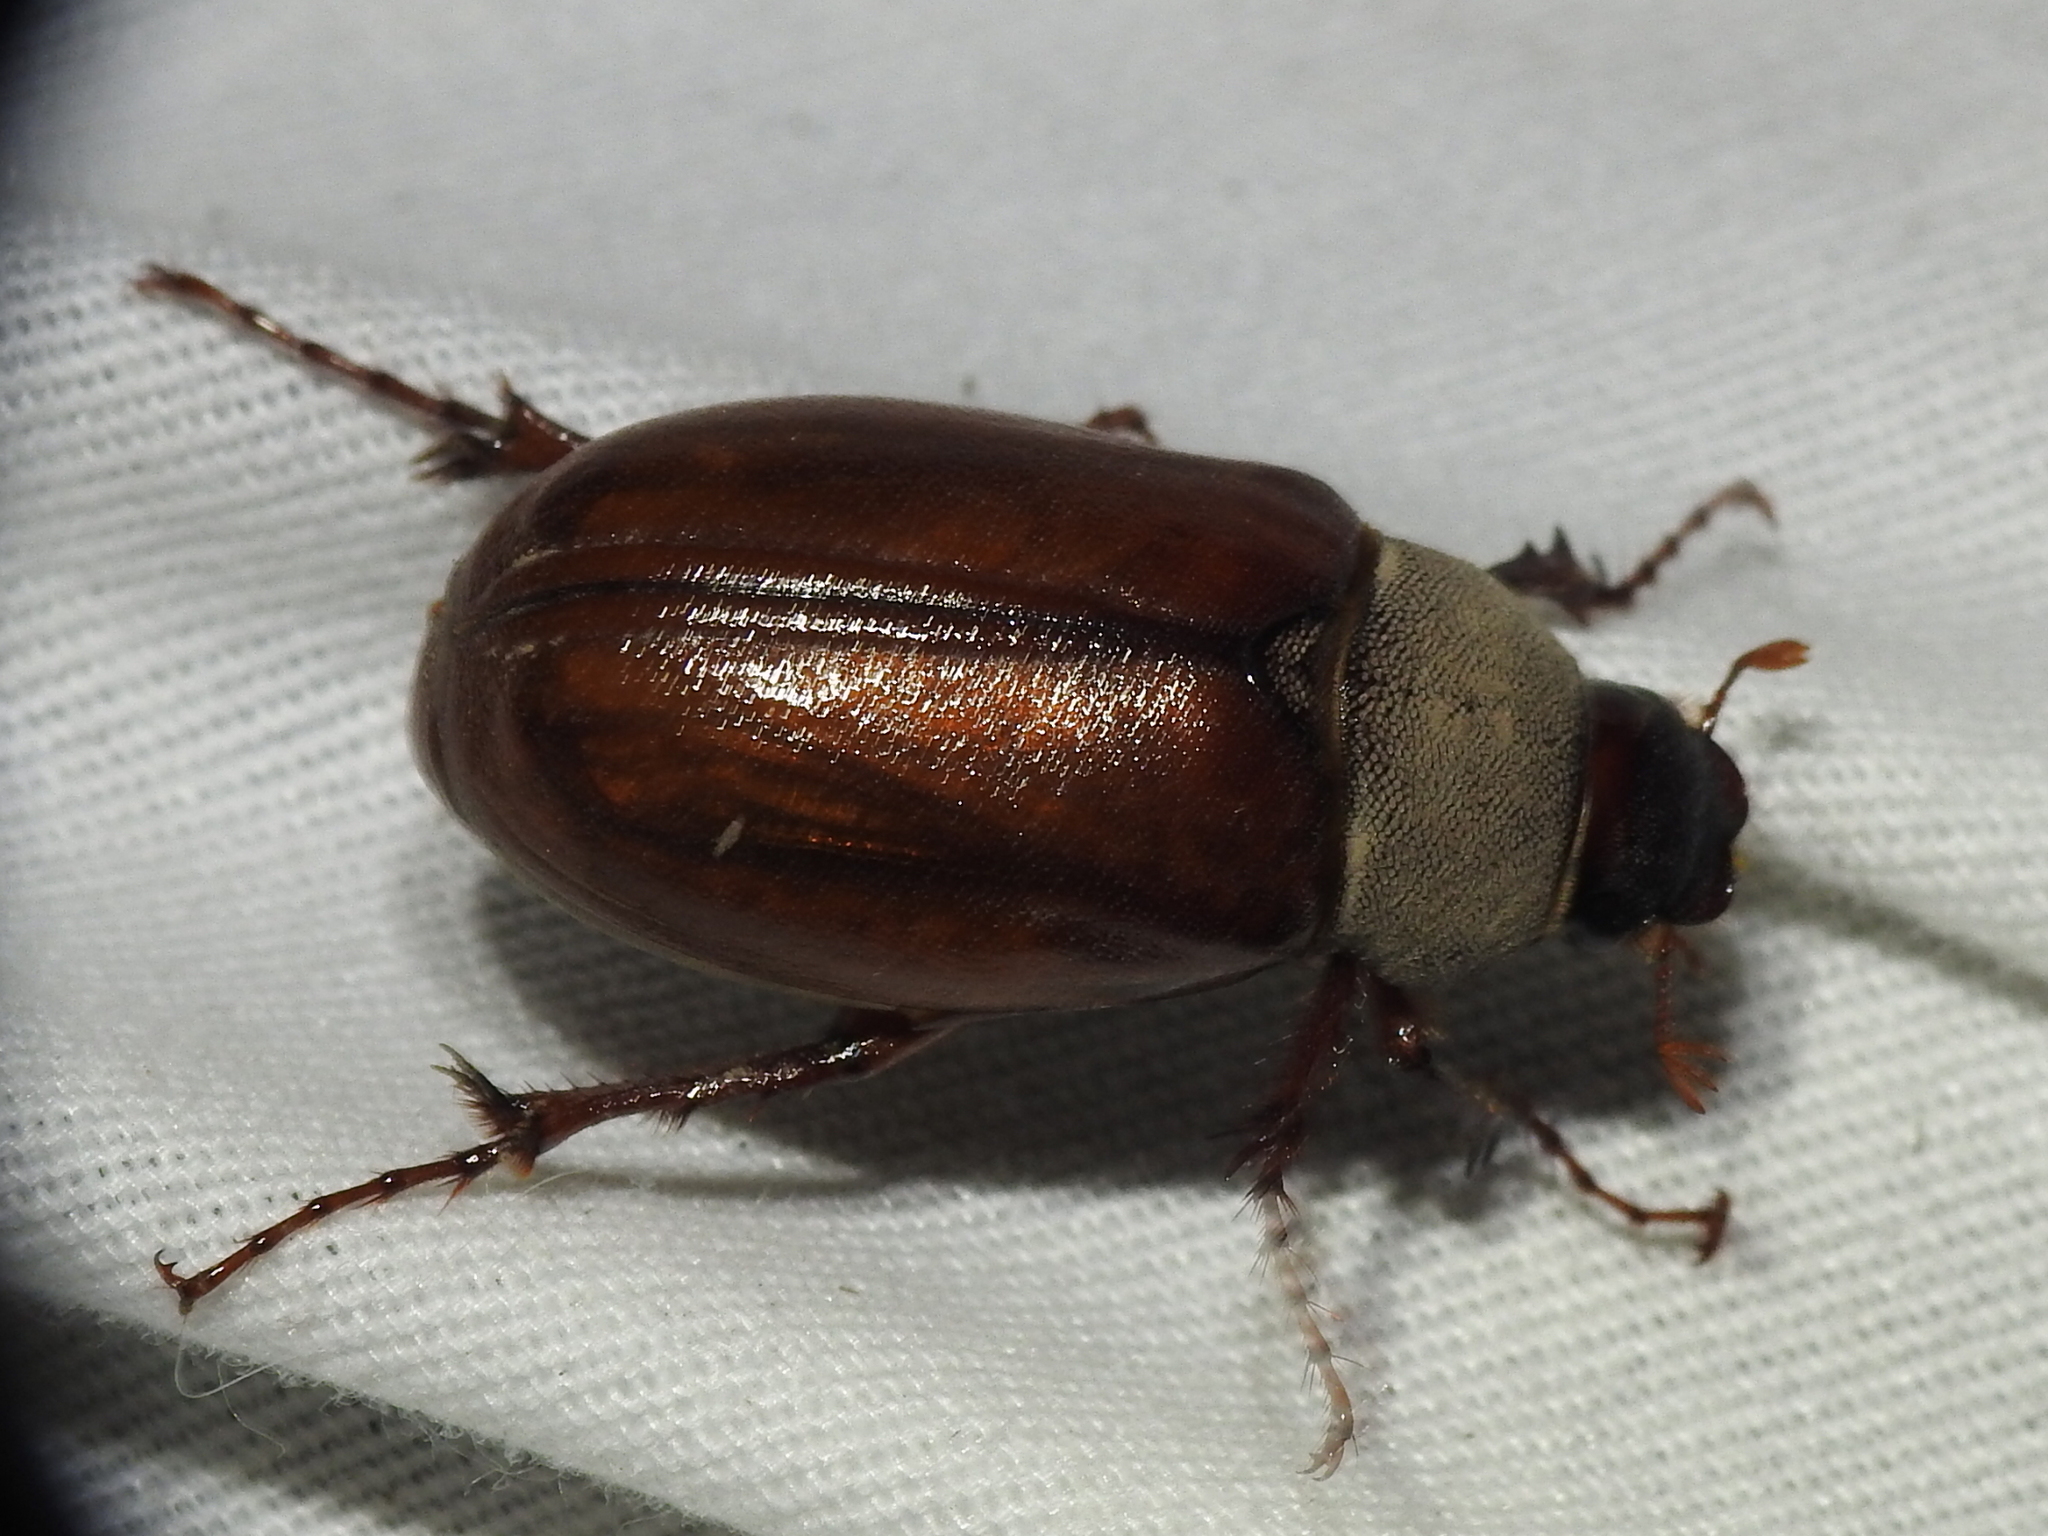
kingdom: Animalia
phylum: Arthropoda
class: Insecta
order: Coleoptera
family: Scarabaeidae
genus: Phyllophaga
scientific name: Phyllophaga scitula
